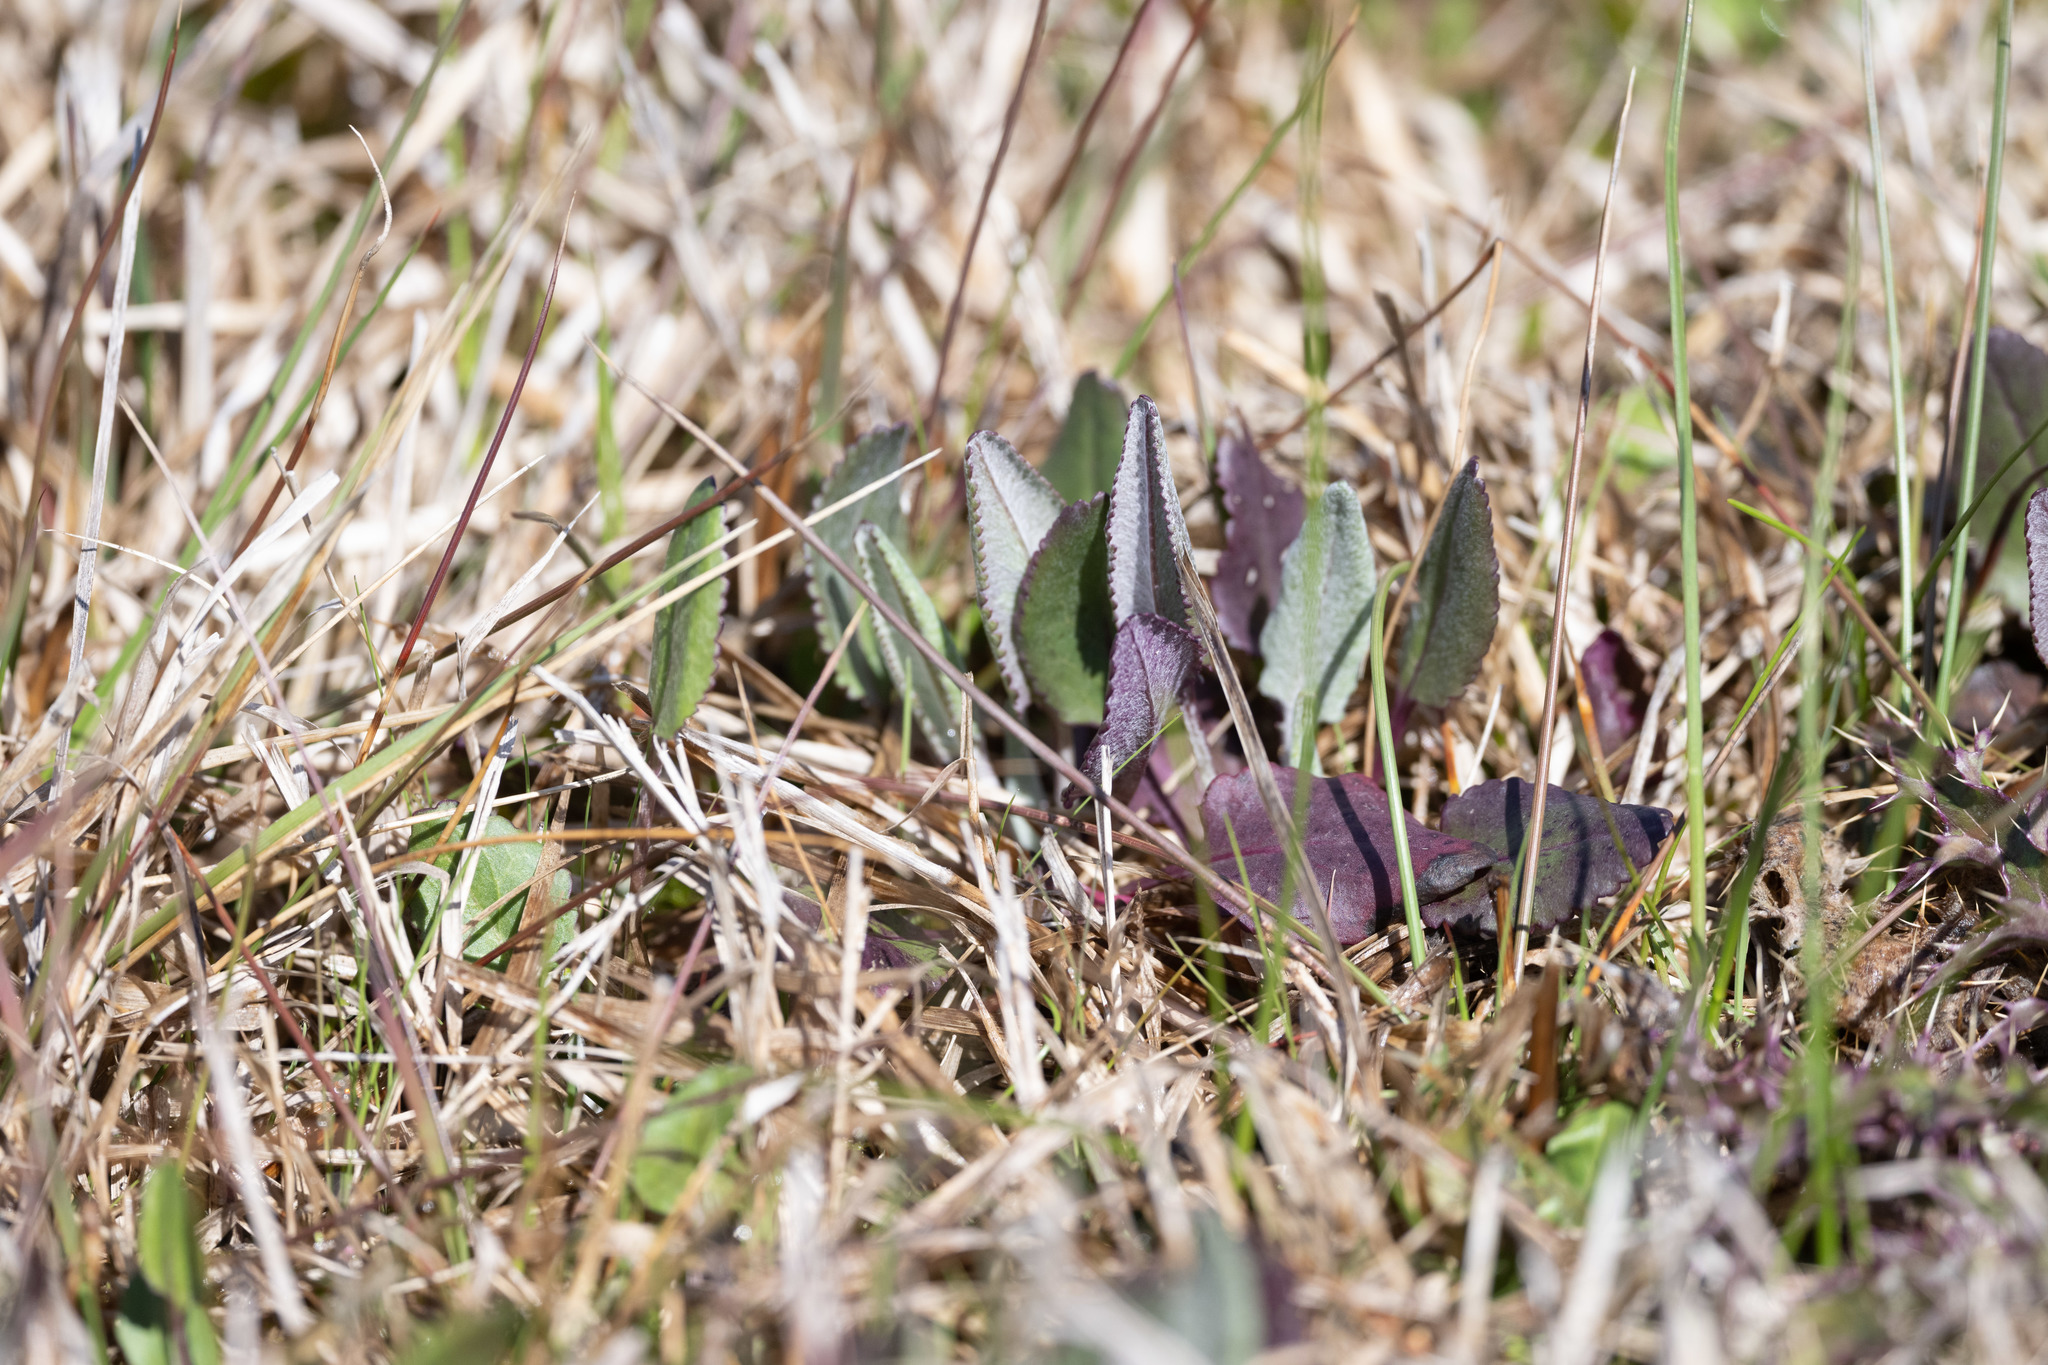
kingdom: Plantae
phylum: Tracheophyta
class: Magnoliopsida
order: Asterales
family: Asteraceae
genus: Packera
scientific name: Packera dubia
